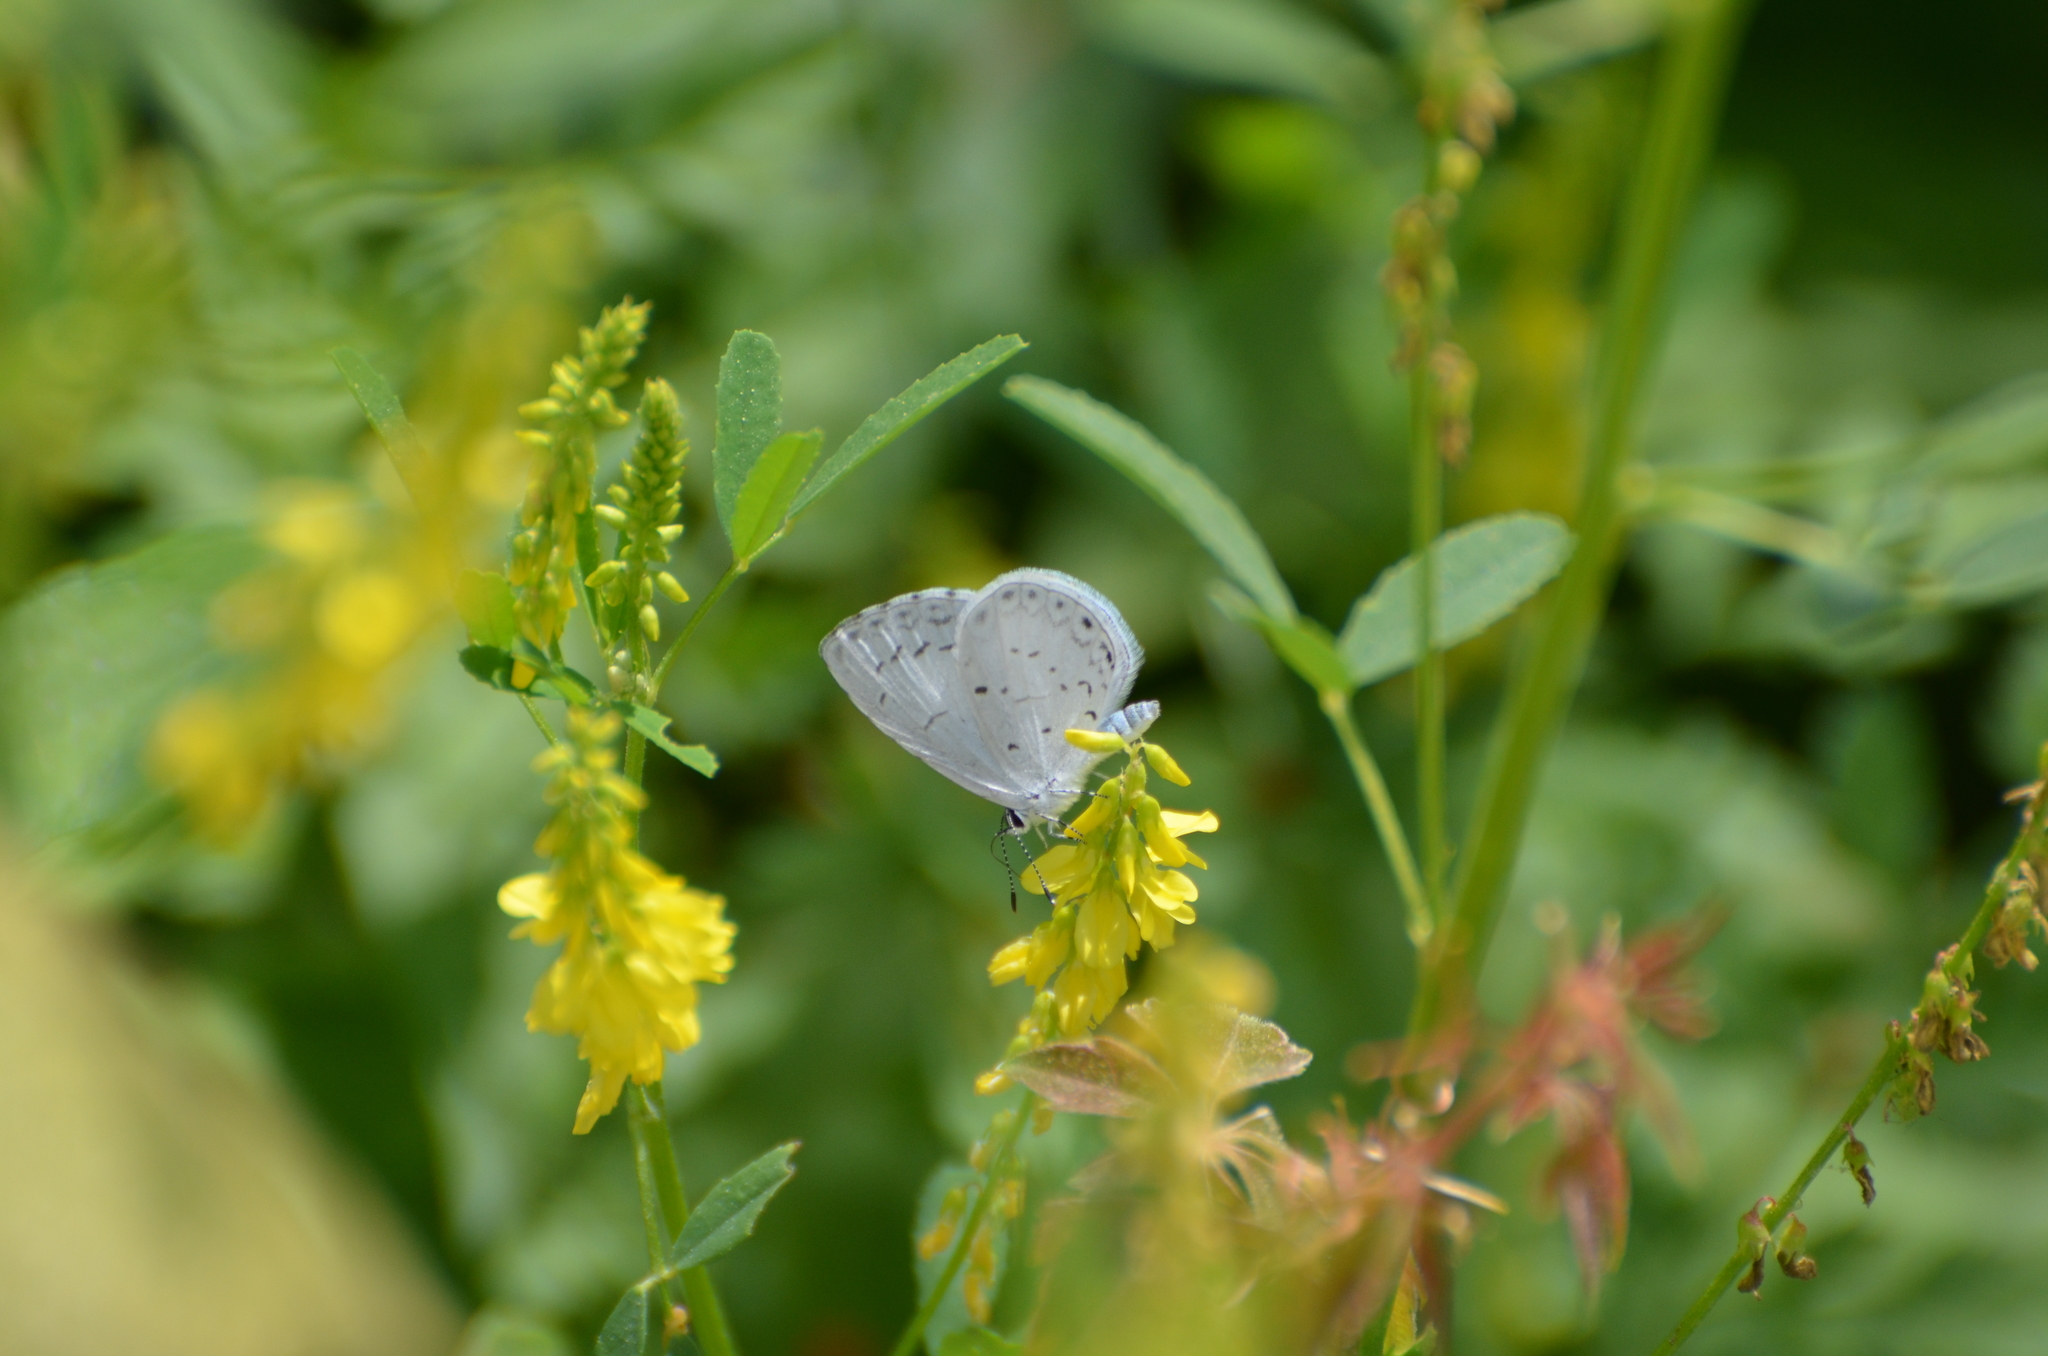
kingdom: Animalia
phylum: Arthropoda
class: Insecta
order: Lepidoptera
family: Lycaenidae
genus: Cyaniris
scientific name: Cyaniris neglecta
